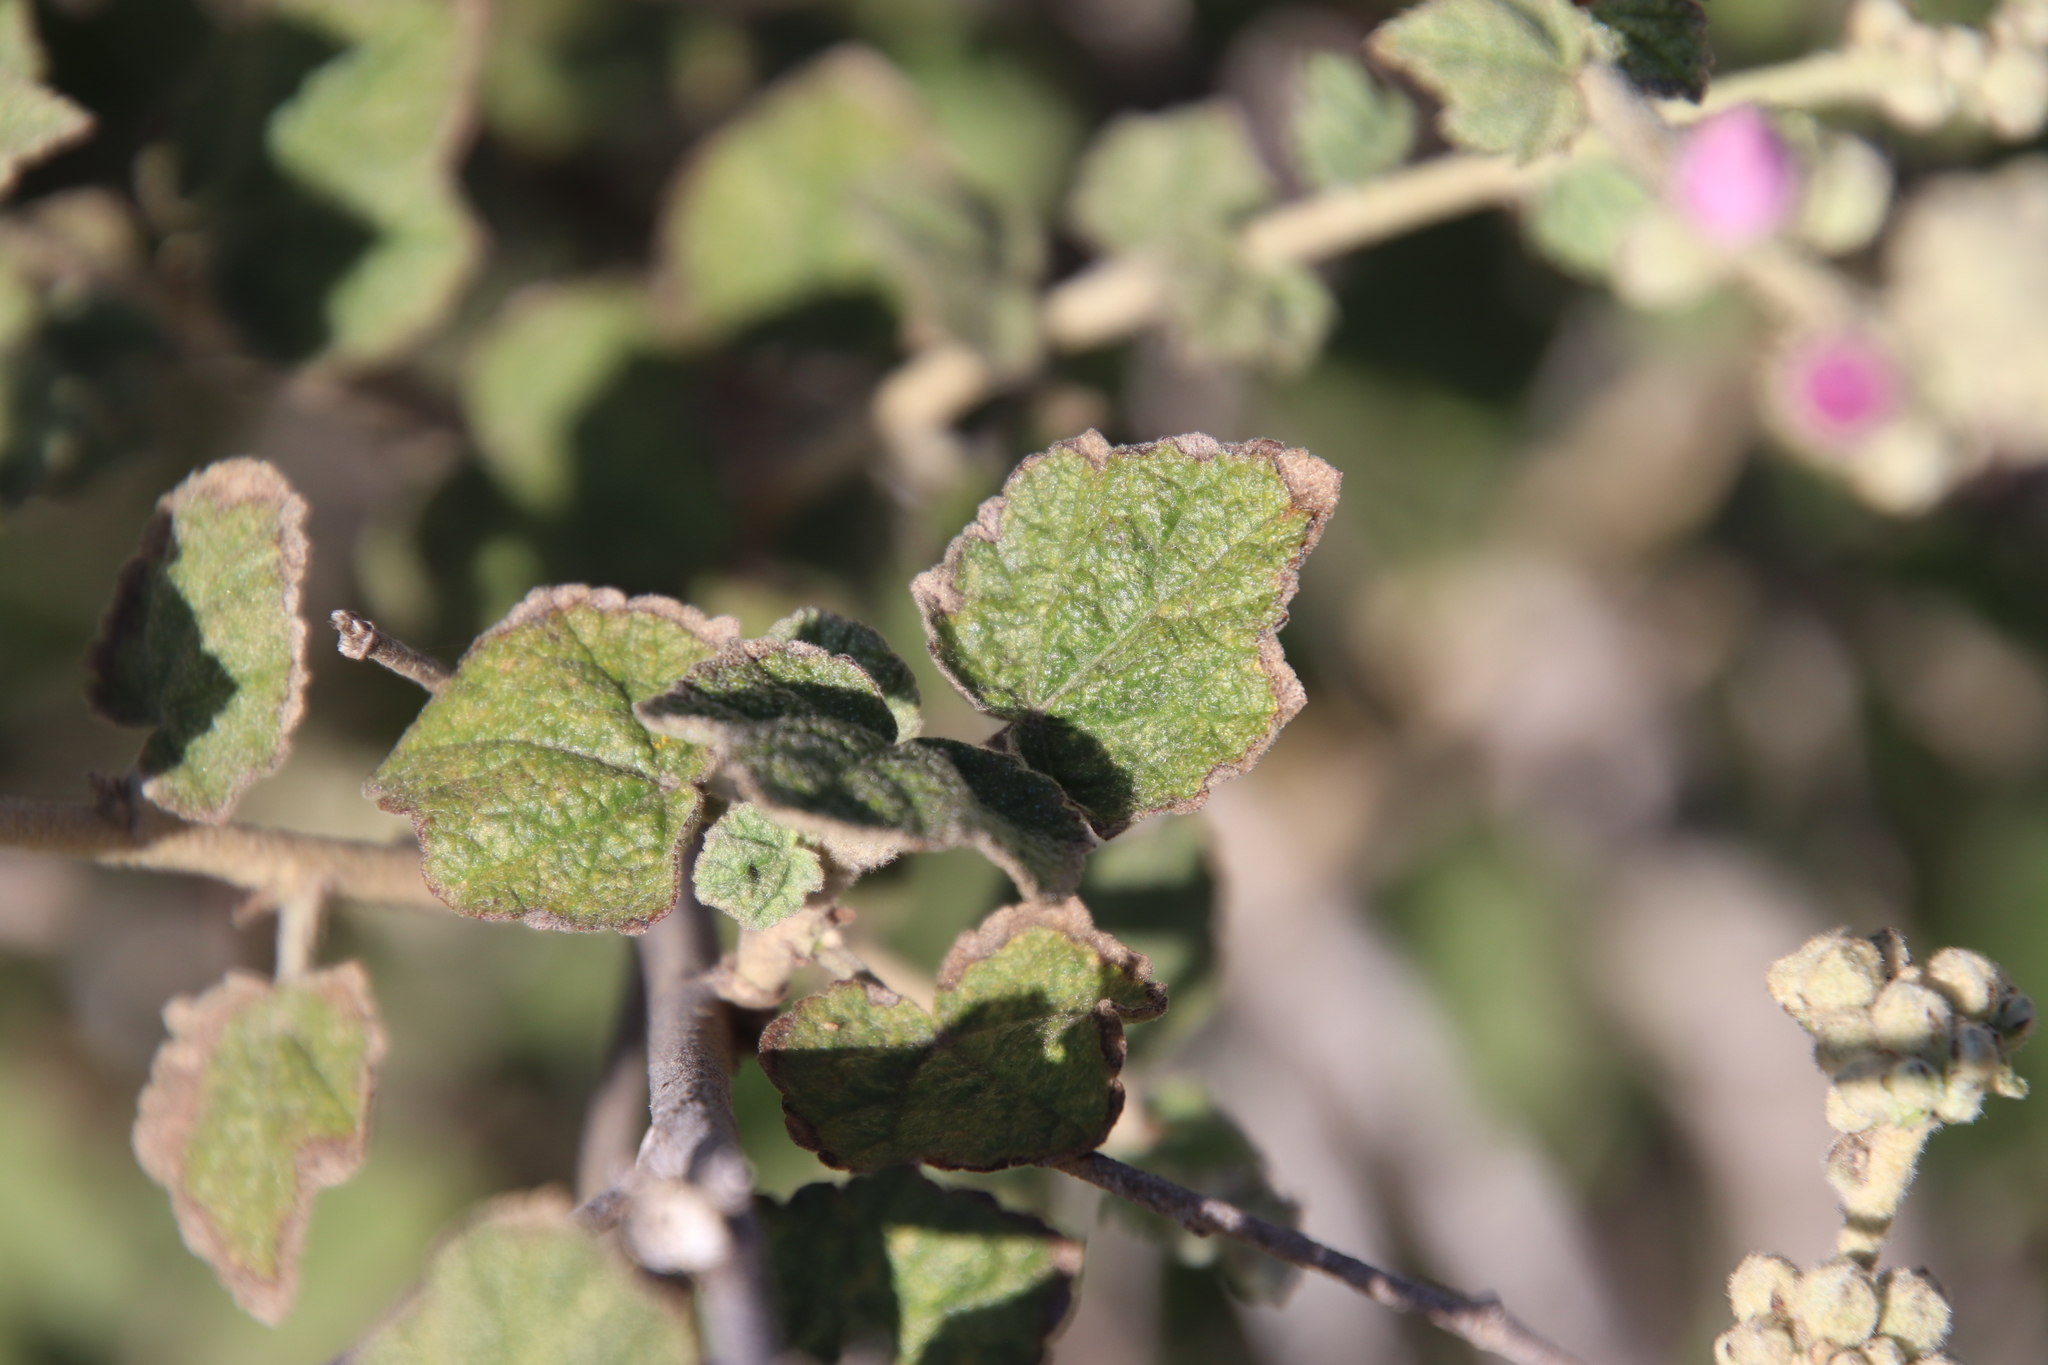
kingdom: Plantae
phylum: Tracheophyta
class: Magnoliopsida
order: Malvales
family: Malvaceae
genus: Malacothamnus
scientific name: Malacothamnus fasciculatus
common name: Sant cruz island bush-mallow
